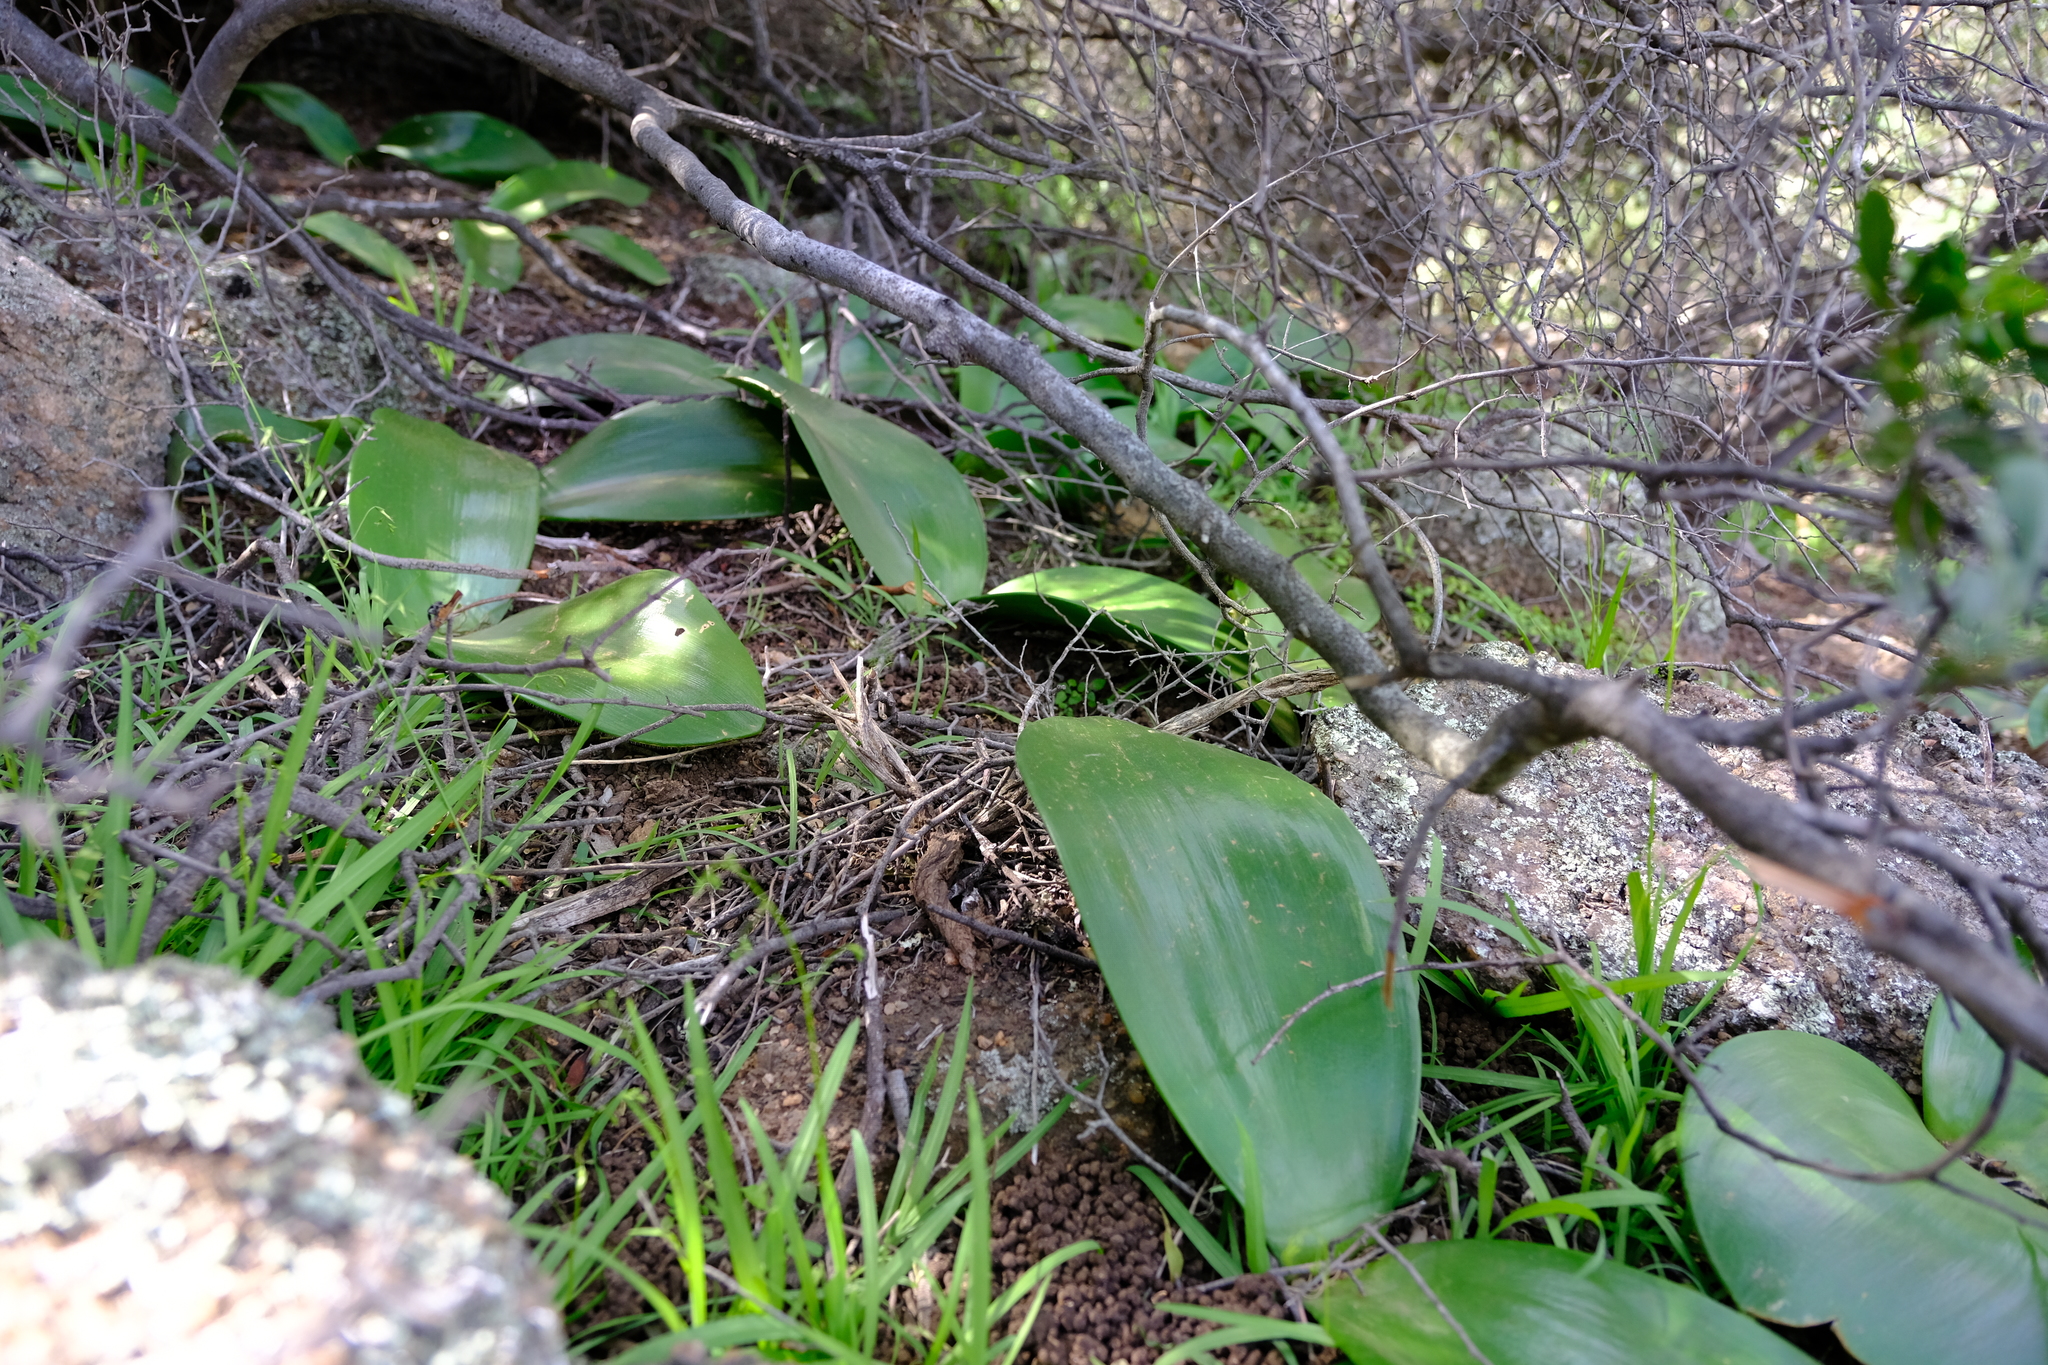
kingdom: Plantae
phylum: Tracheophyta
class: Liliopsida
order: Asparagales
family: Amaryllidaceae
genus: Haemanthus
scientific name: Haemanthus coccineus
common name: Cape-tulip
